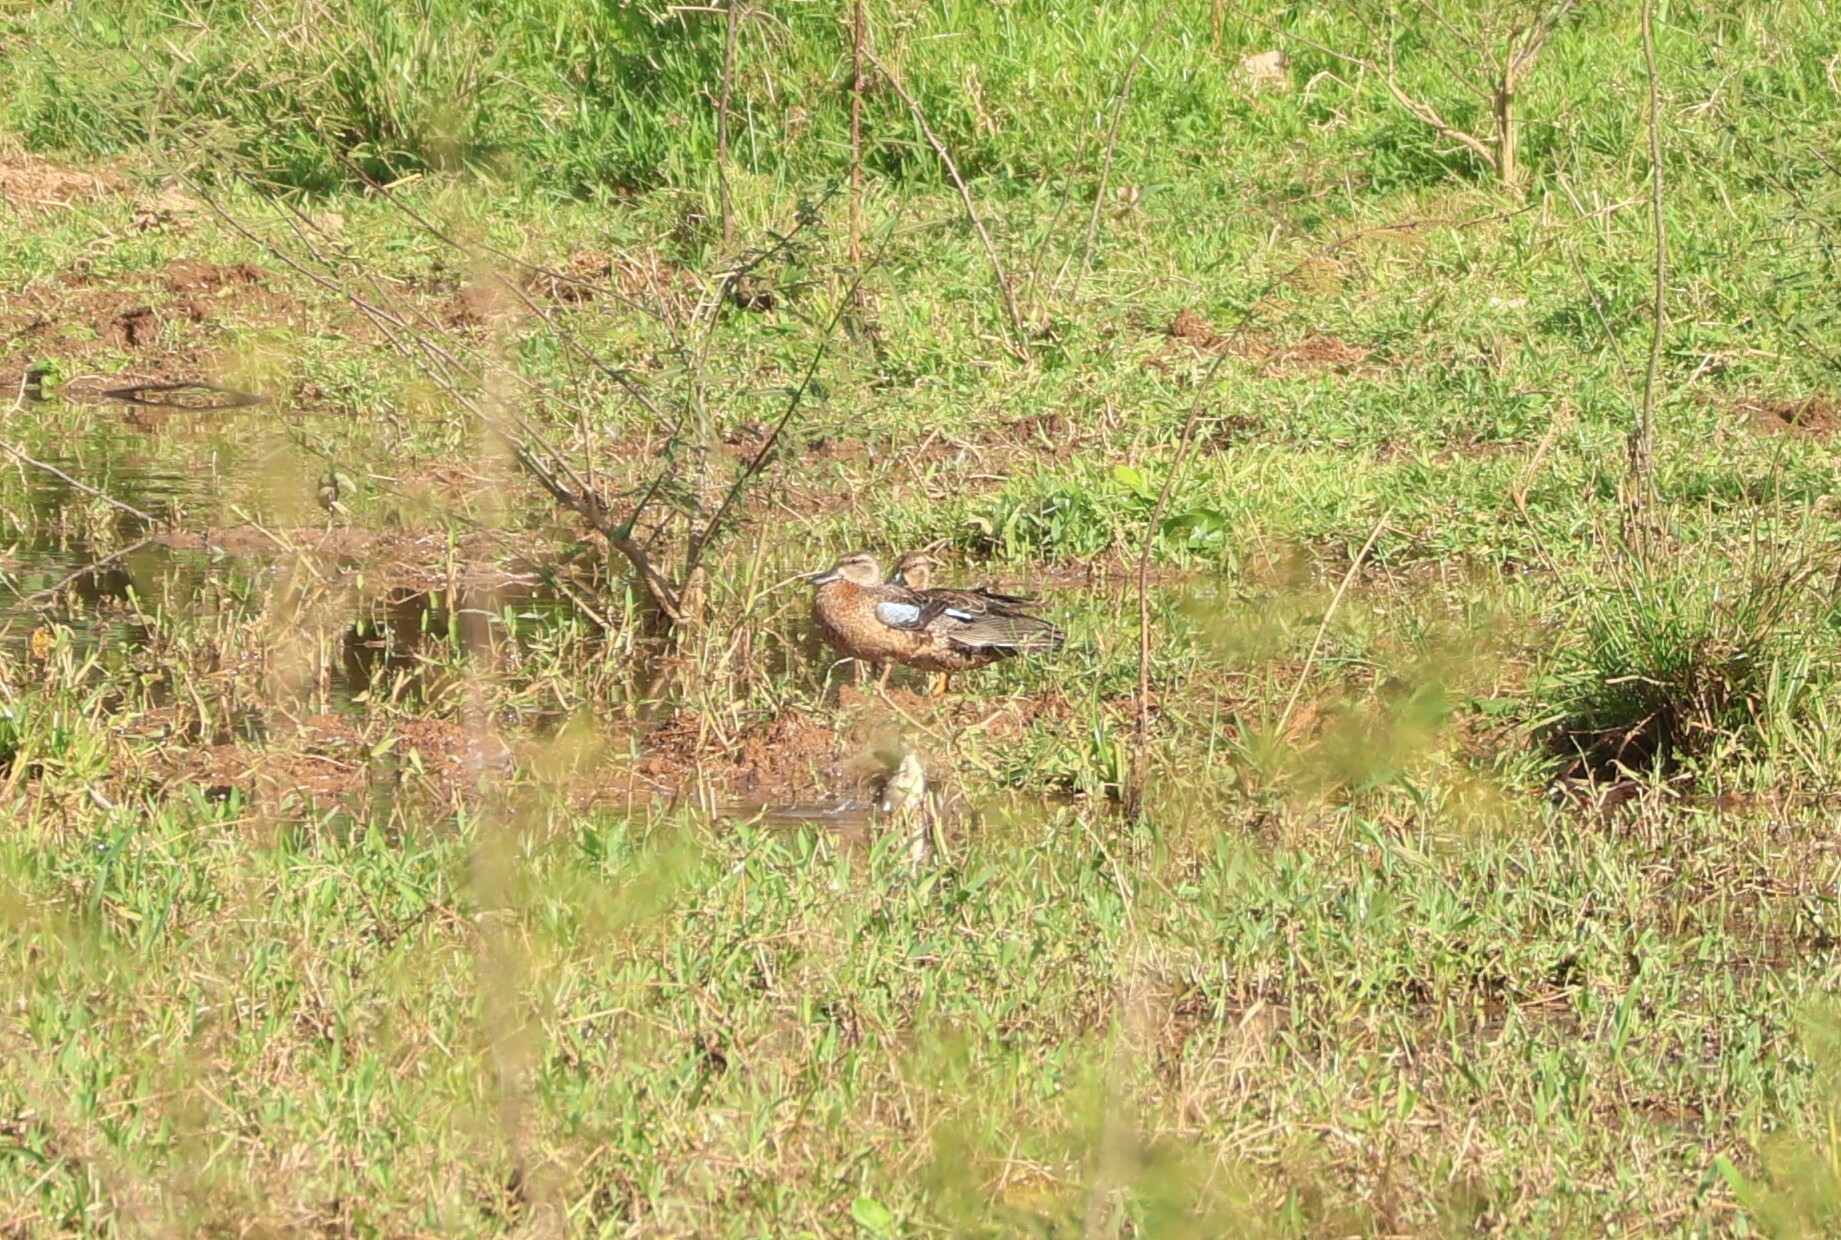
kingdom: Animalia
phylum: Chordata
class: Aves
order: Anseriformes
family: Anatidae
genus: Spatula
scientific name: Spatula discors
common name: Blue-winged teal
